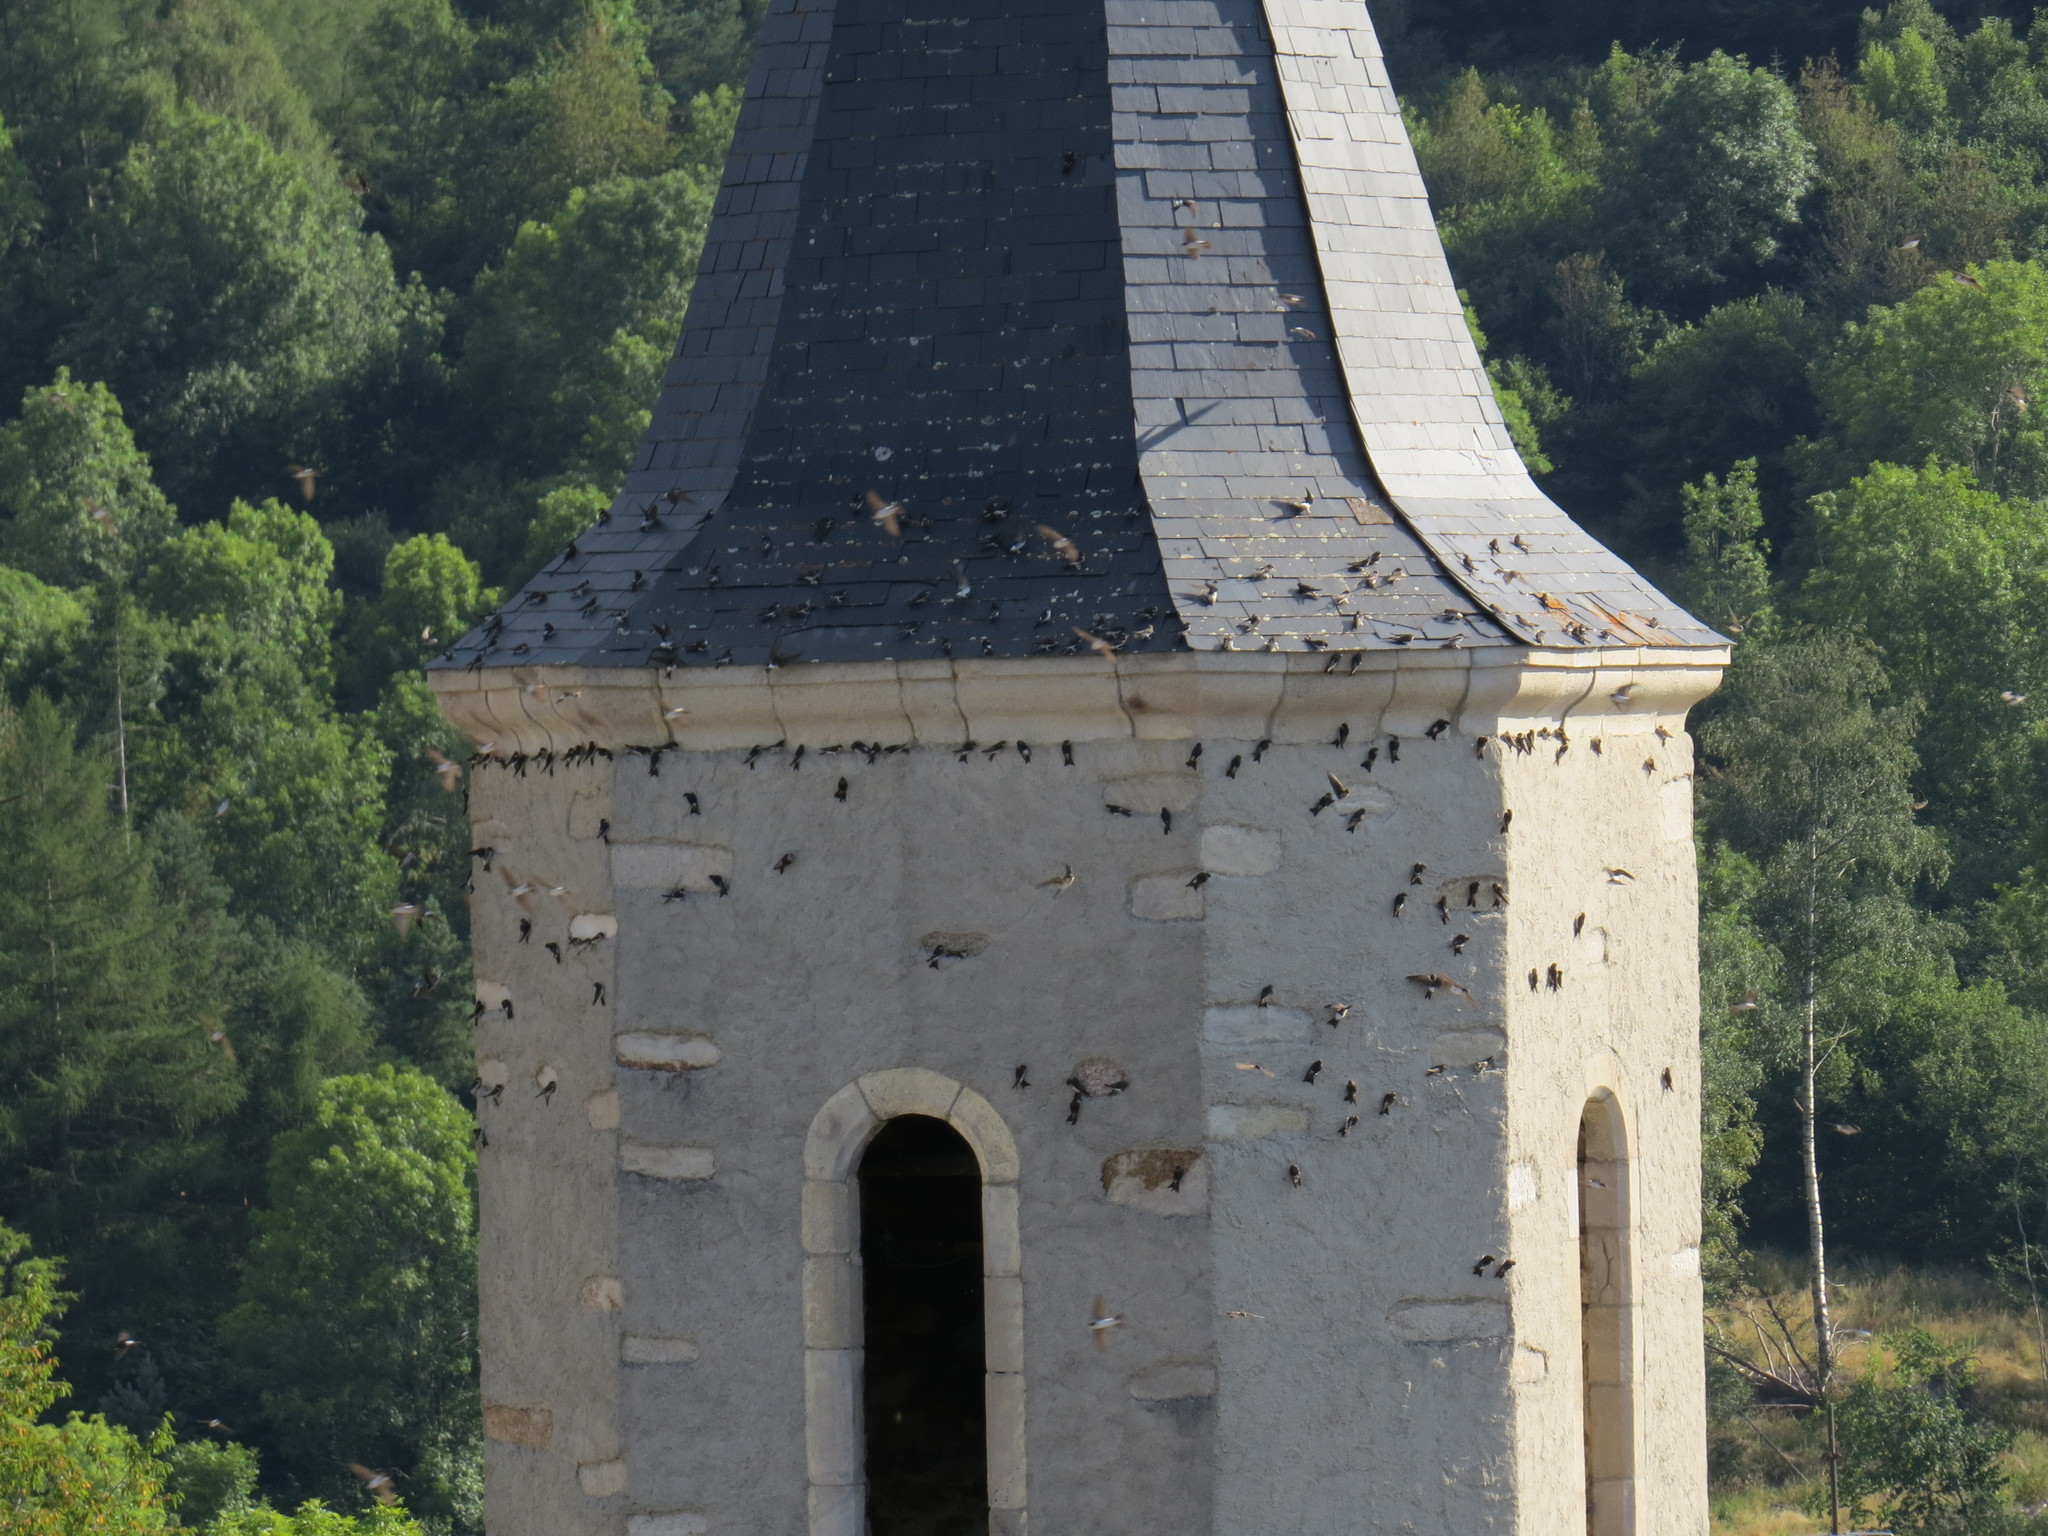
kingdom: Animalia
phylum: Chordata
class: Aves
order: Passeriformes
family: Hirundinidae
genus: Delichon
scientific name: Delichon urbicum
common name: Common house martin
